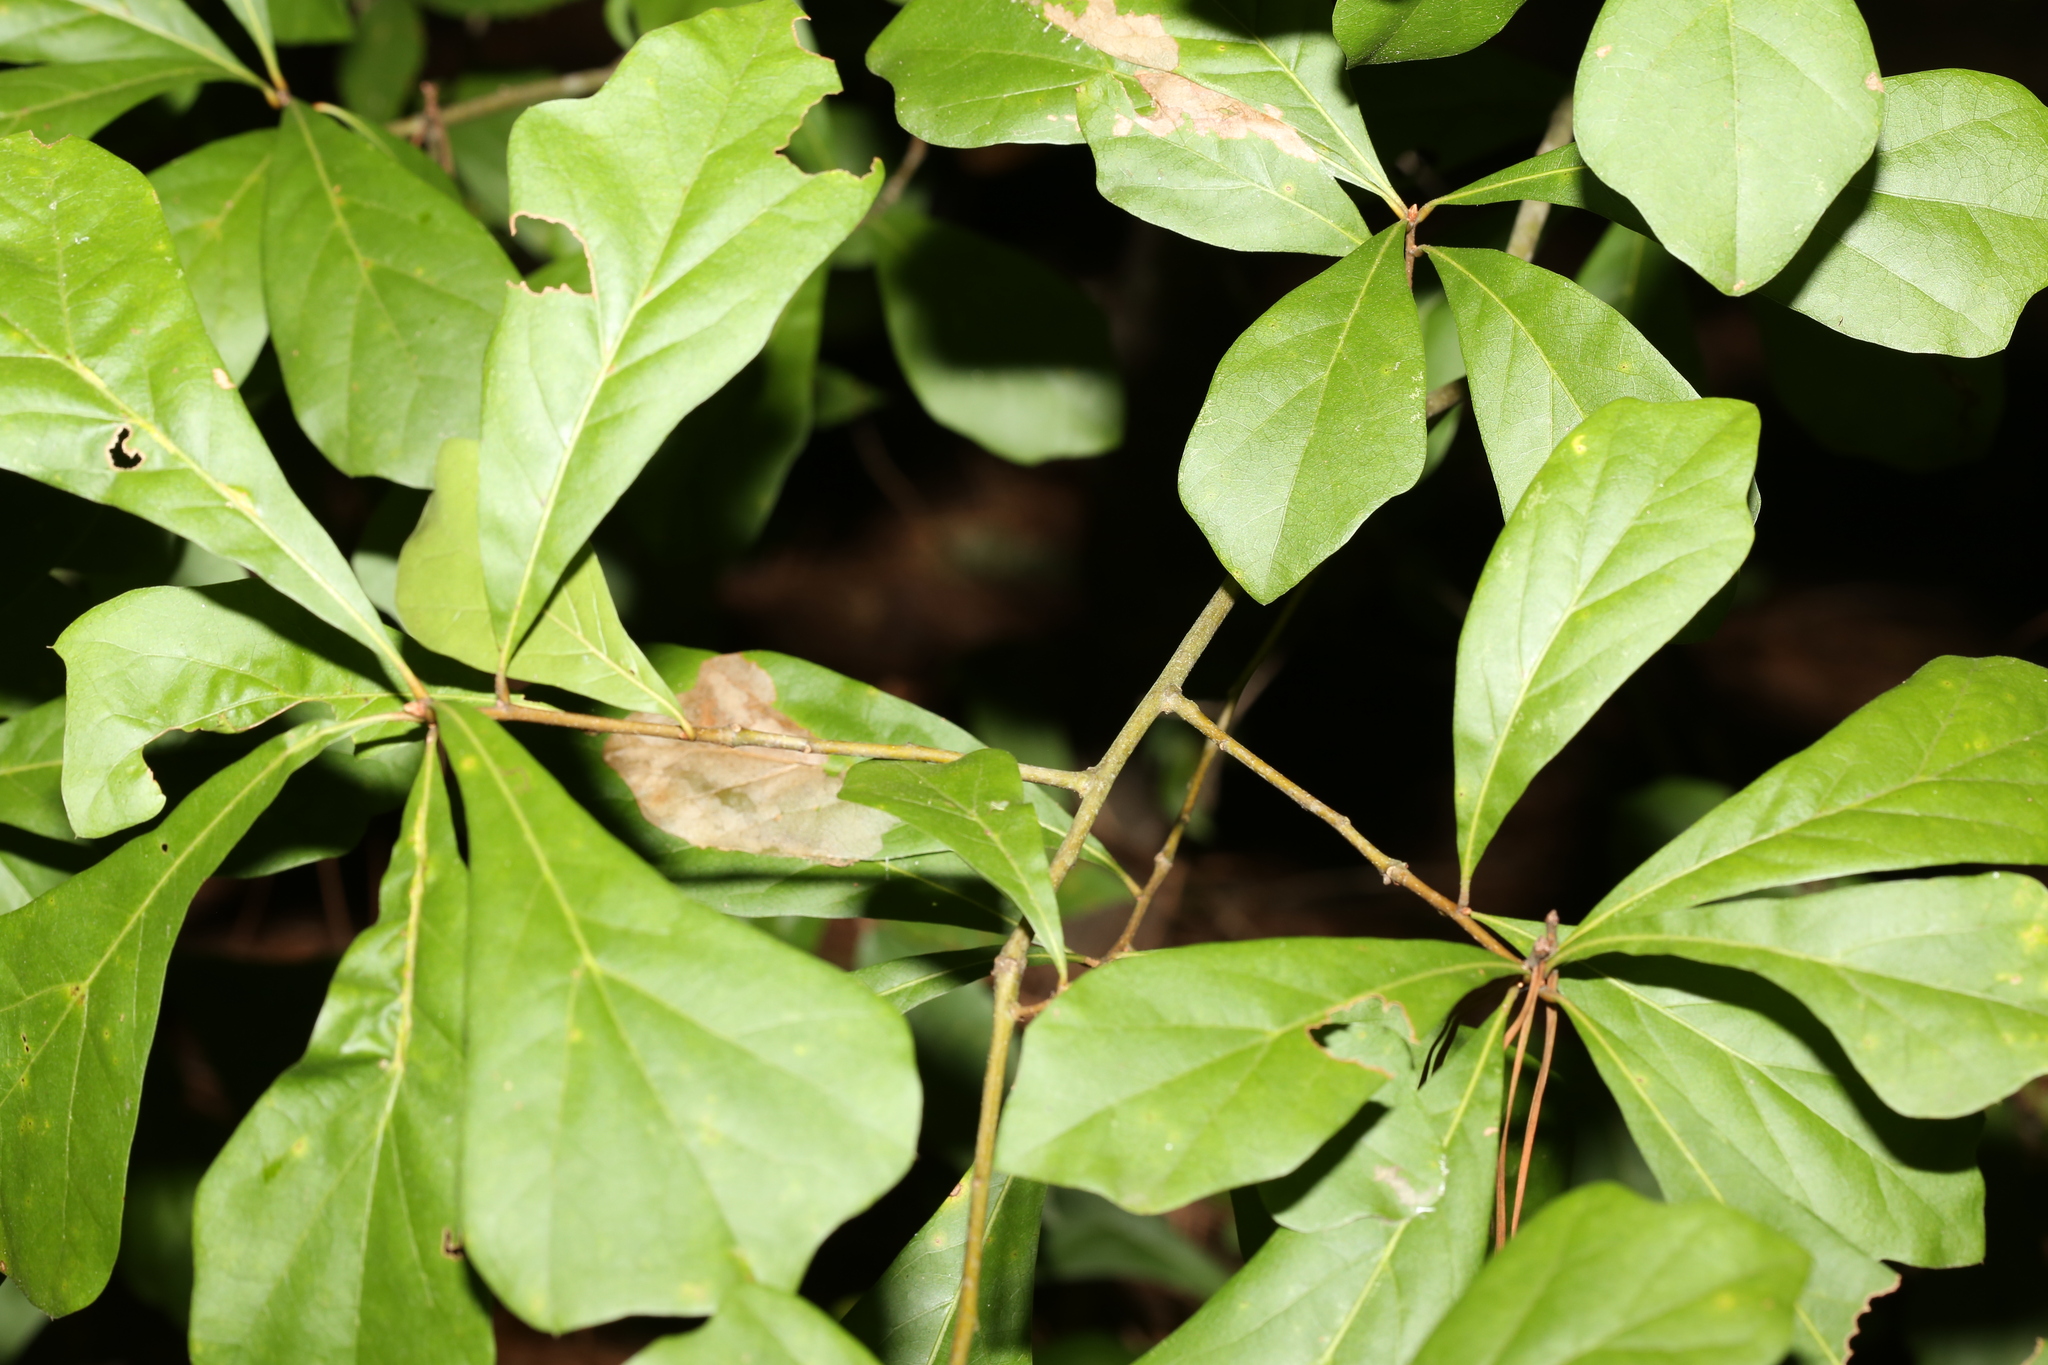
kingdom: Plantae
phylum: Tracheophyta
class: Magnoliopsida
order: Fagales
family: Fagaceae
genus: Quercus
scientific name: Quercus nigra
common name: Water oak
